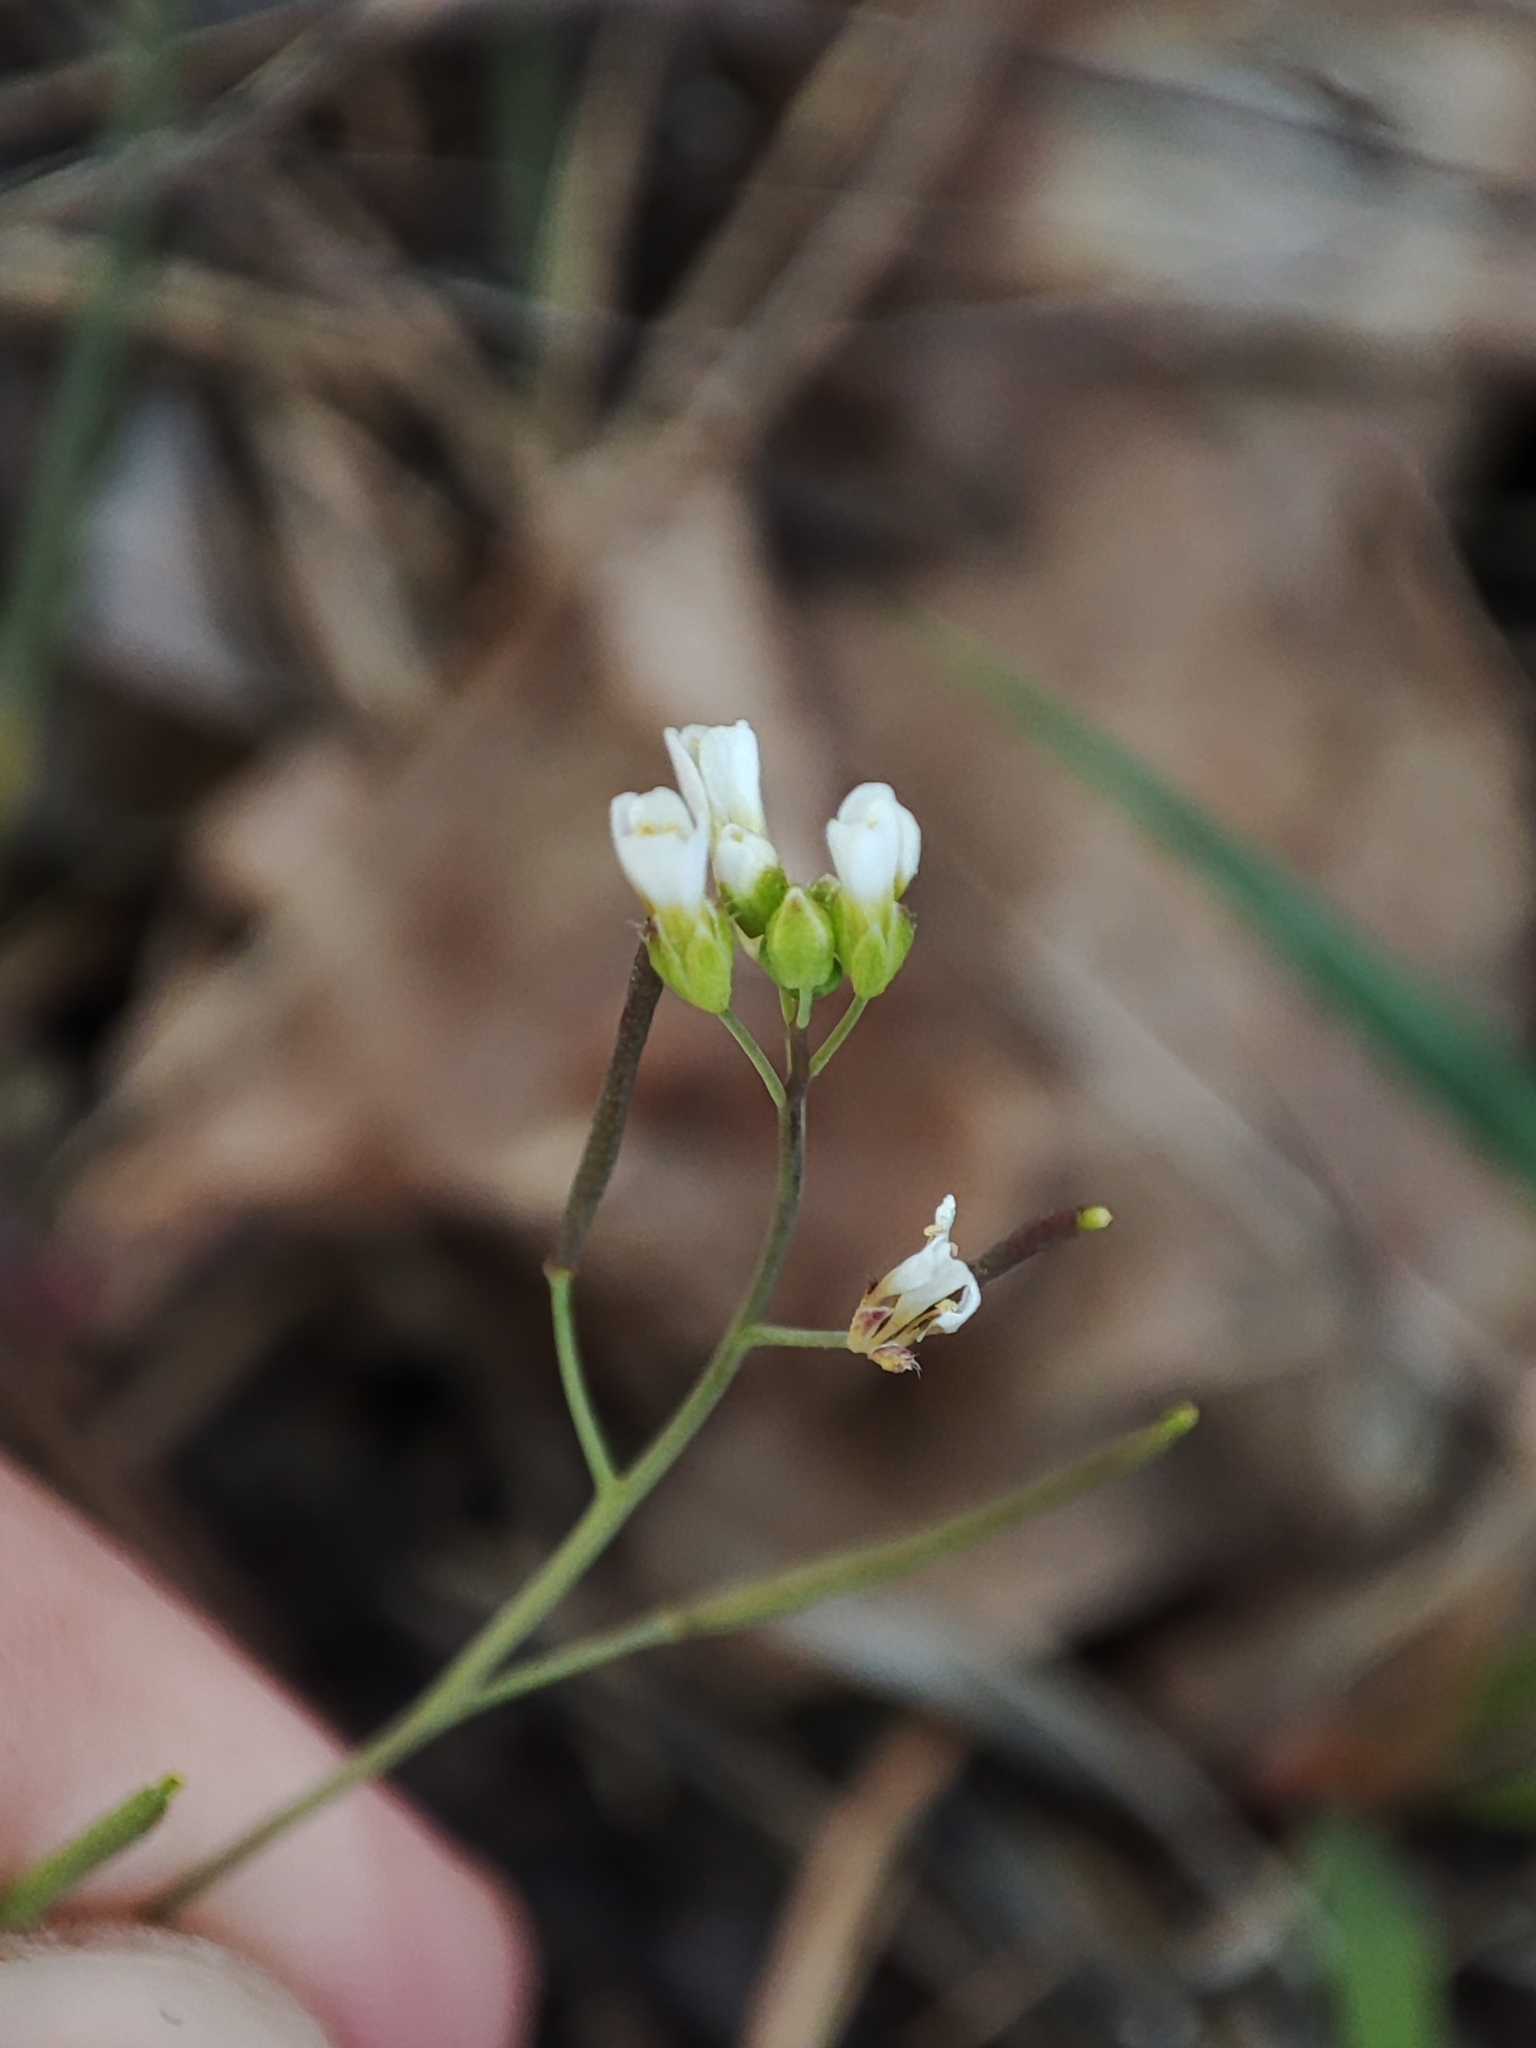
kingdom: Plantae
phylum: Tracheophyta
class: Magnoliopsida
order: Brassicales
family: Brassicaceae
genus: Arabidopsis
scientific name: Arabidopsis thaliana
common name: Thale cress
